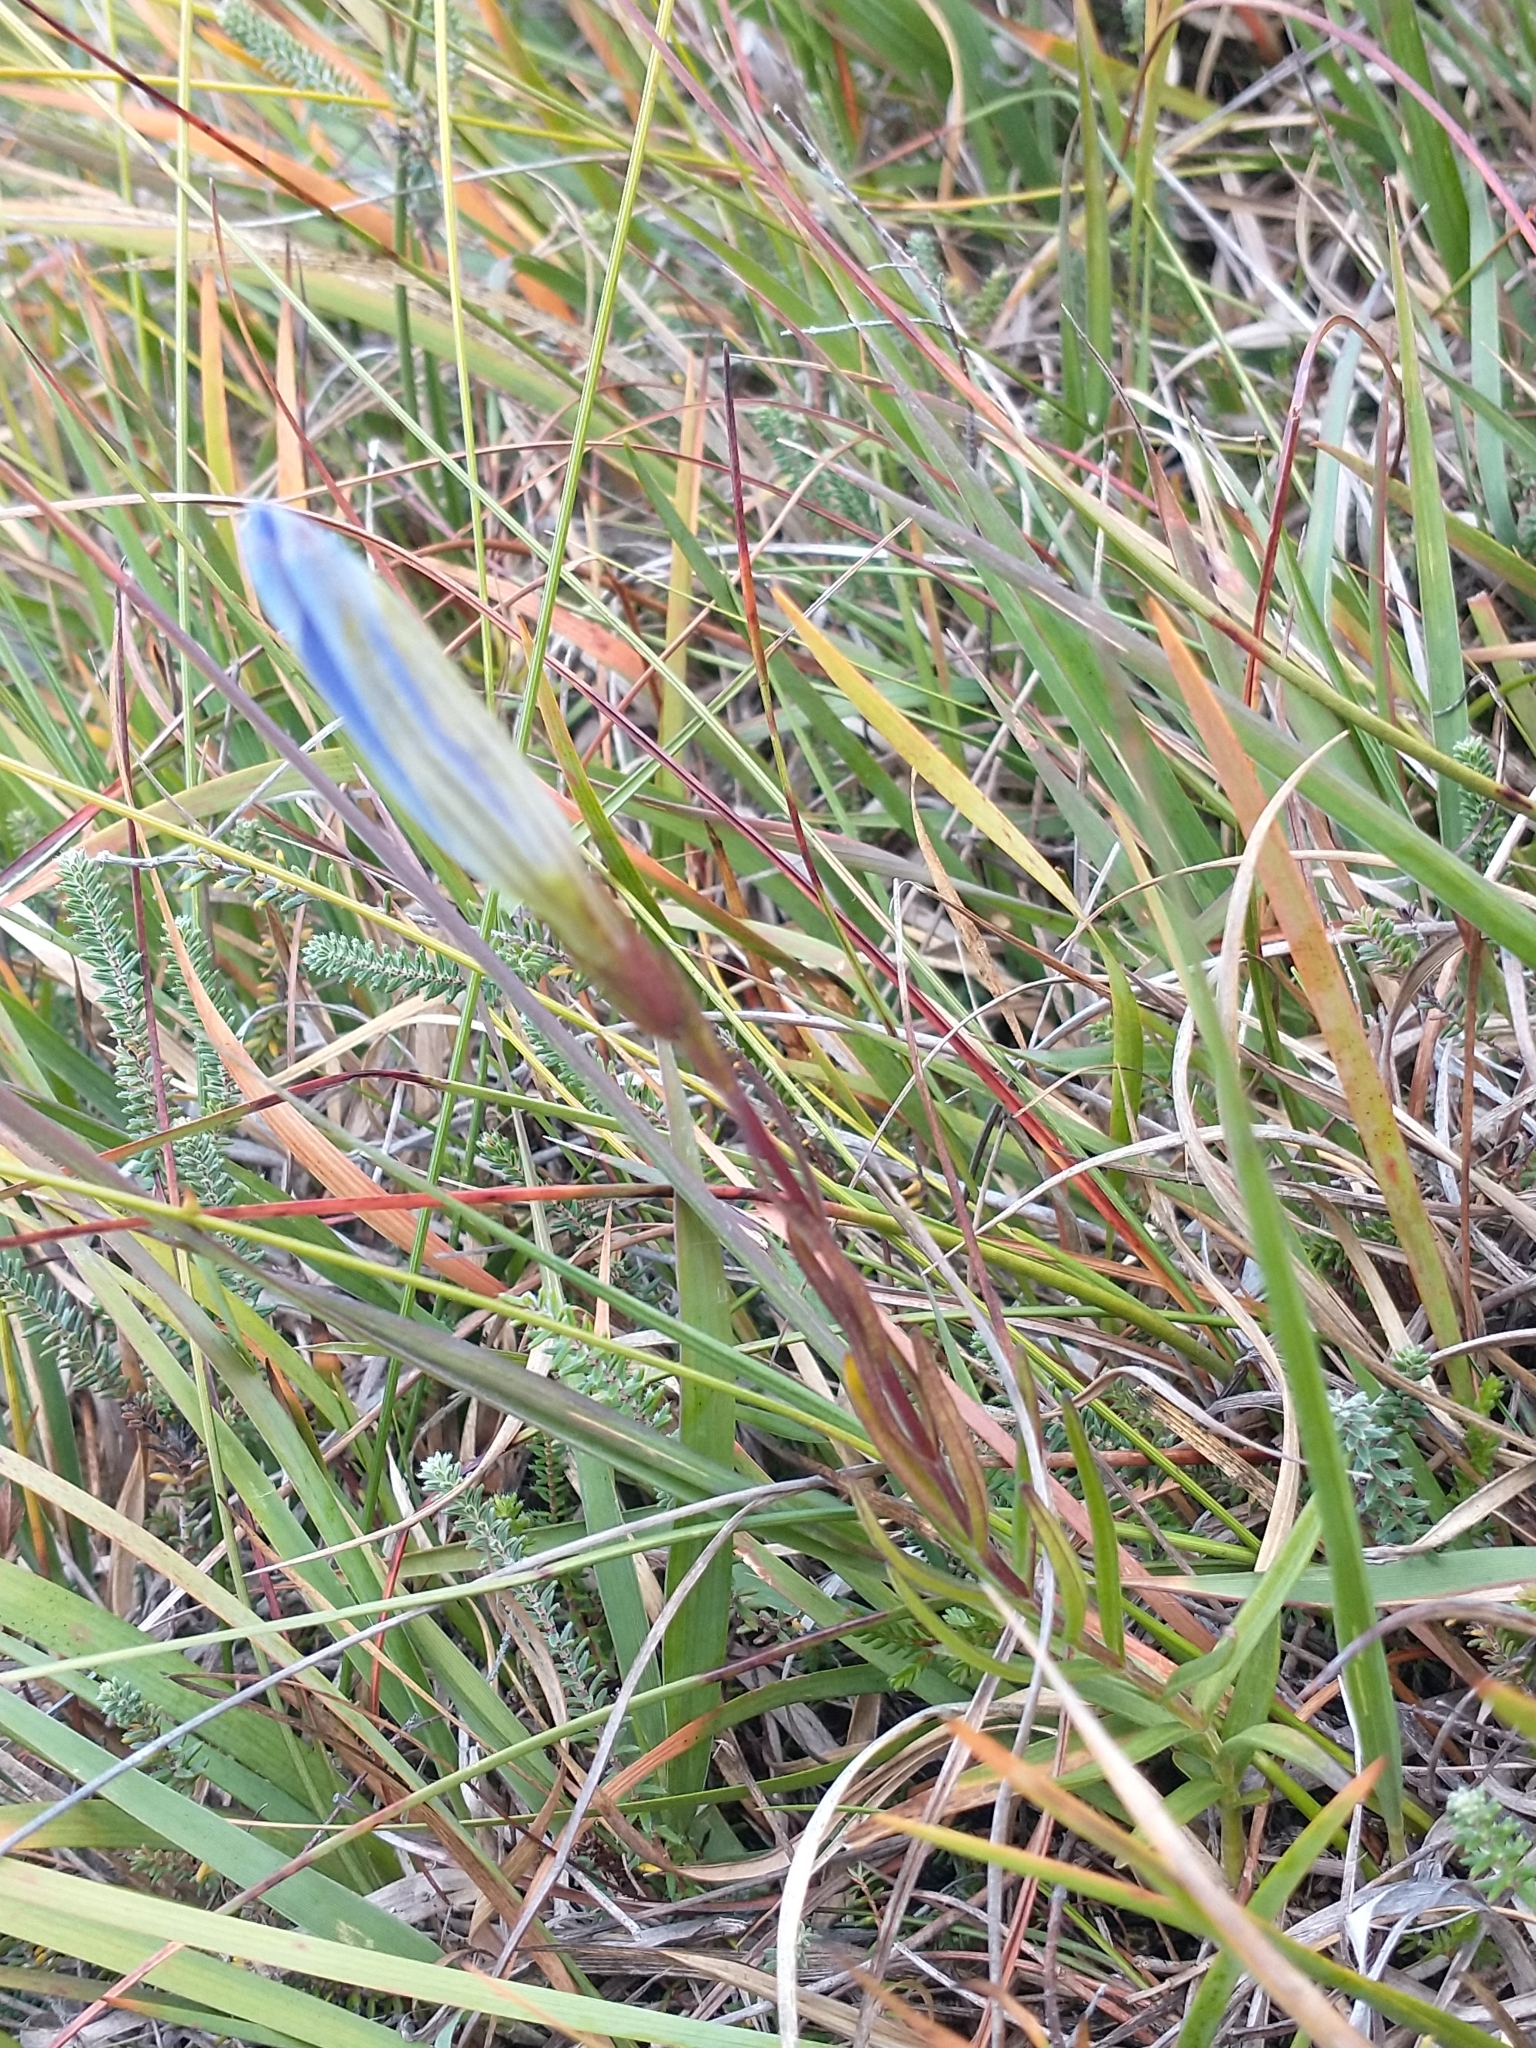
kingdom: Plantae
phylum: Tracheophyta
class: Magnoliopsida
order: Gentianales
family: Gentianaceae
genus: Gentiana
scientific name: Gentiana pneumonanthe
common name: Marsh gentian
